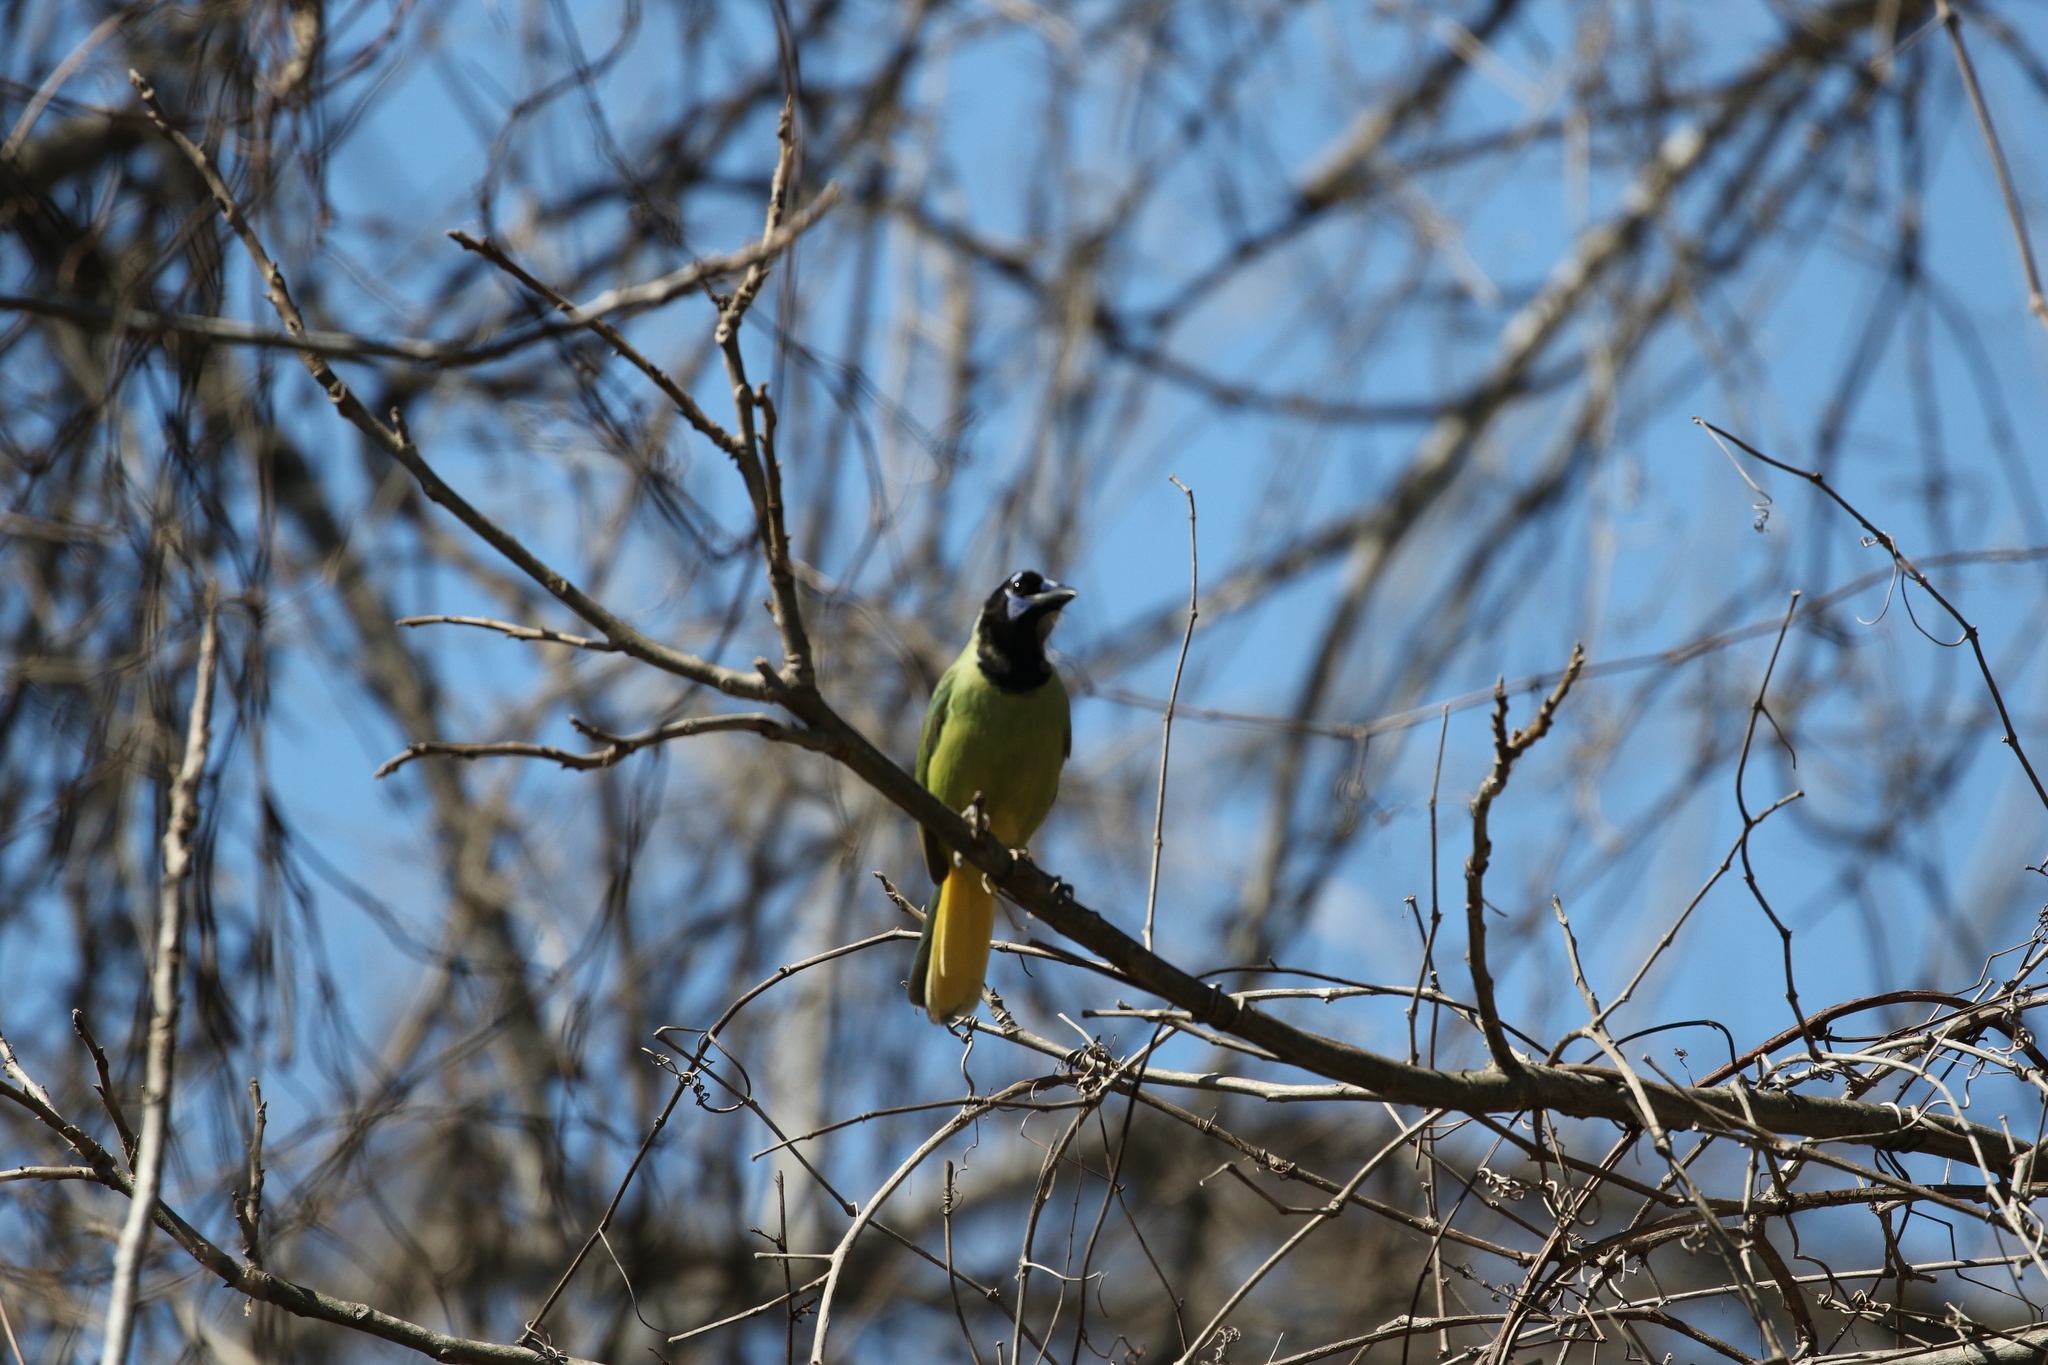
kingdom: Animalia
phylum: Chordata
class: Aves
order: Passeriformes
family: Corvidae
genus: Cyanocorax
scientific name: Cyanocorax yncas
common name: Green jay
